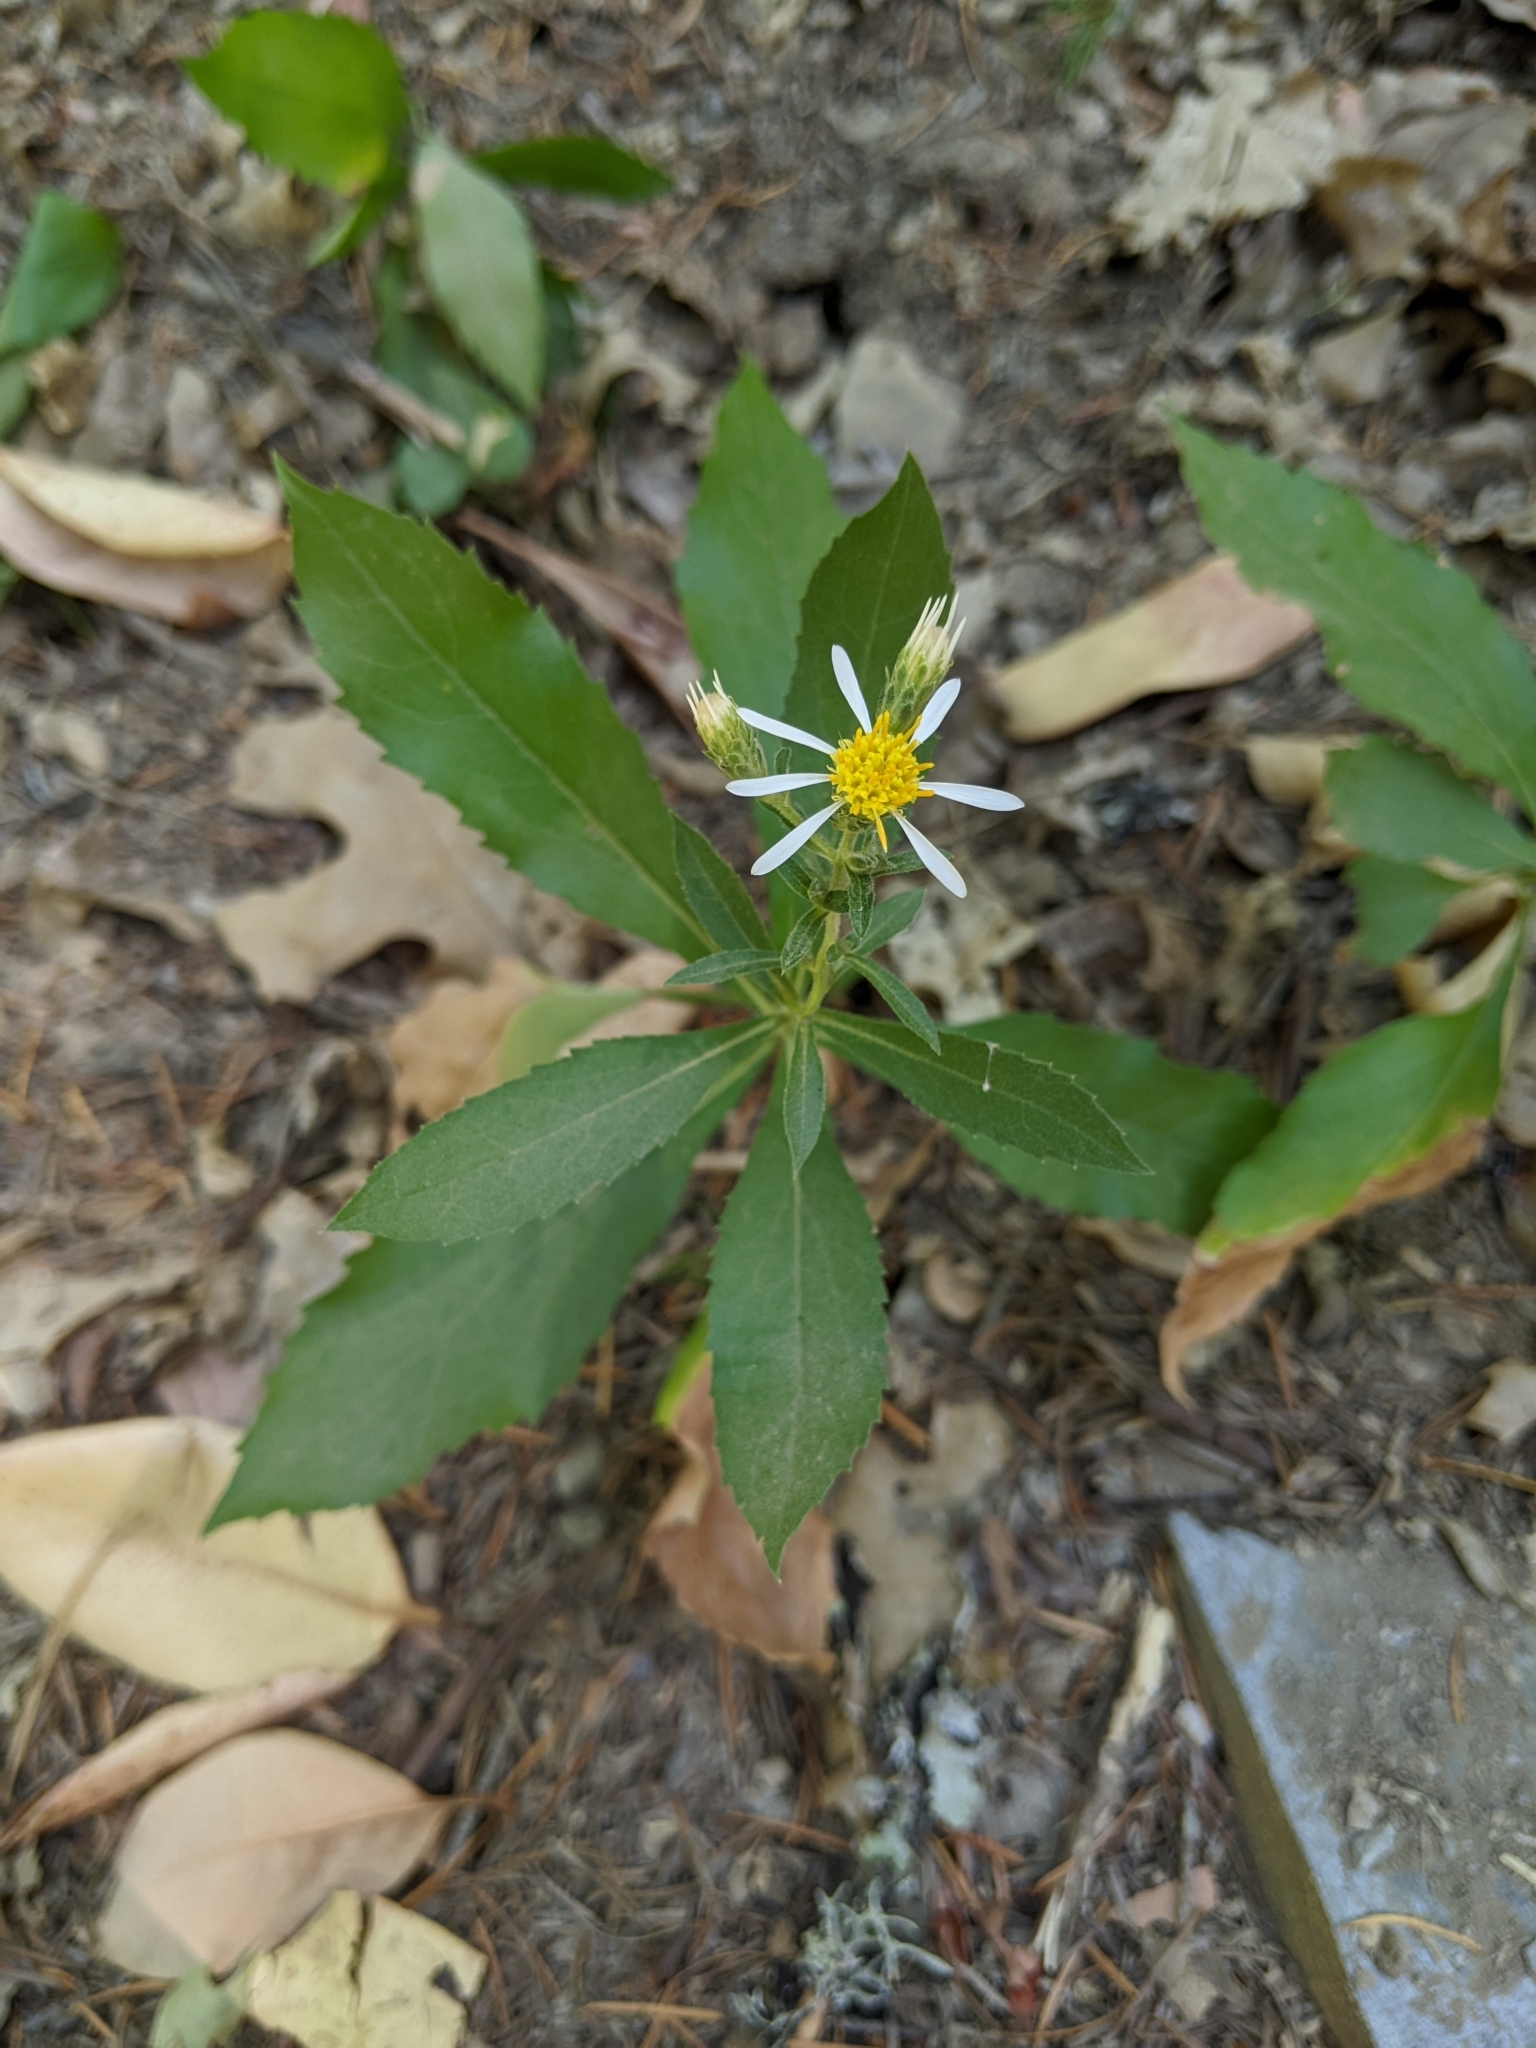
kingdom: Plantae
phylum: Tracheophyta
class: Magnoliopsida
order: Asterales
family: Asteraceae
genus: Eurybia
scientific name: Eurybia radulina
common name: Rough-leaved aster
